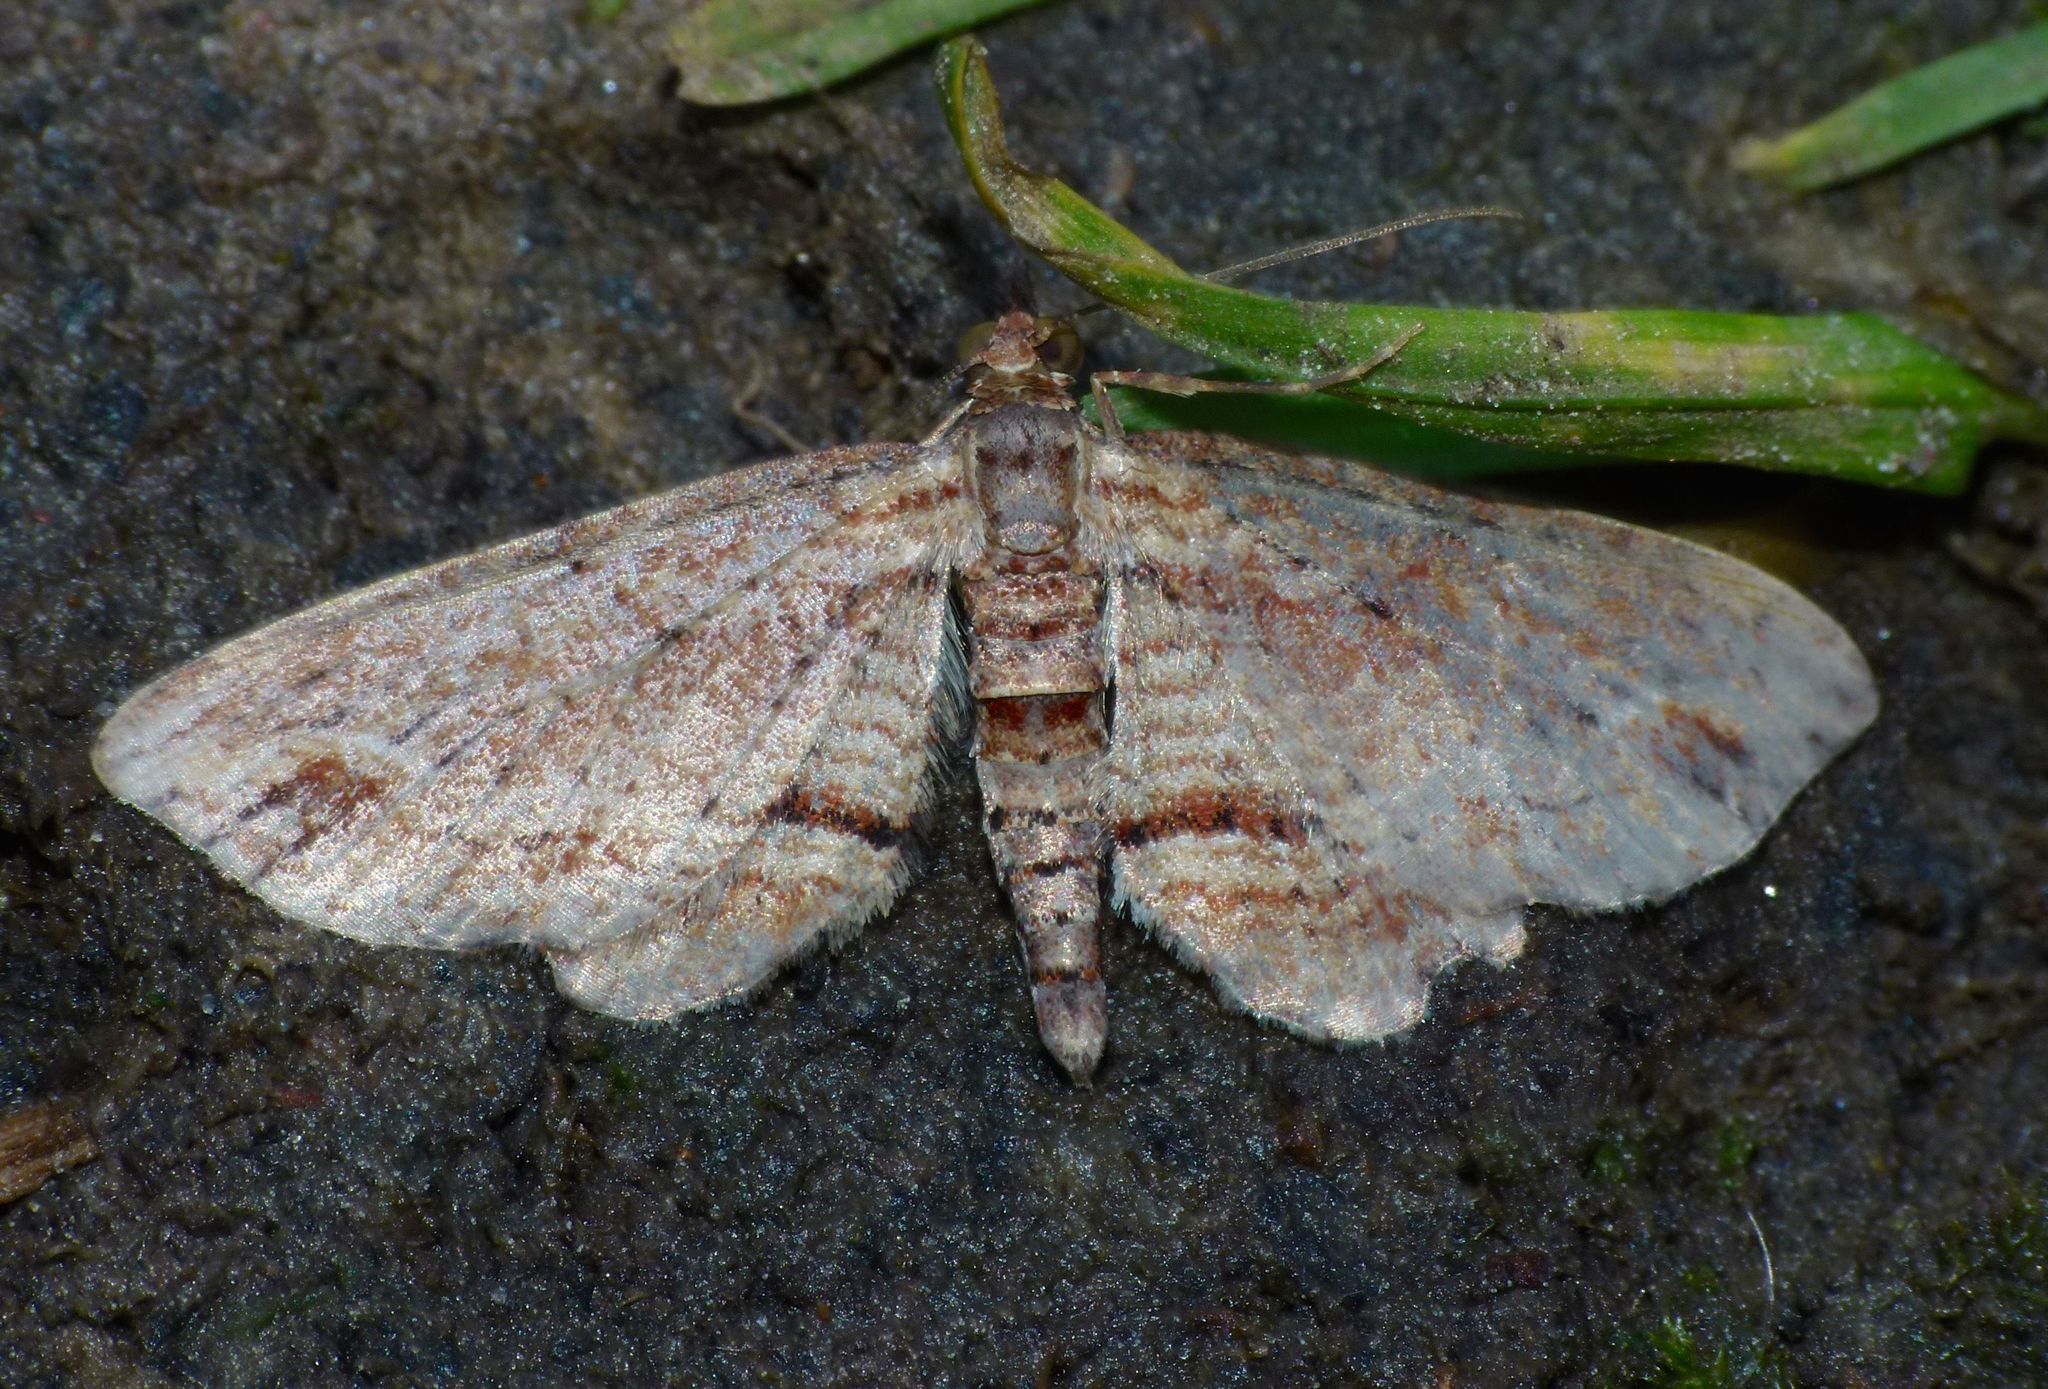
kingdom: Animalia
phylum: Arthropoda
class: Insecta
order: Lepidoptera
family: Geometridae
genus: Chloroclystis
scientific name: Chloroclystis filata
